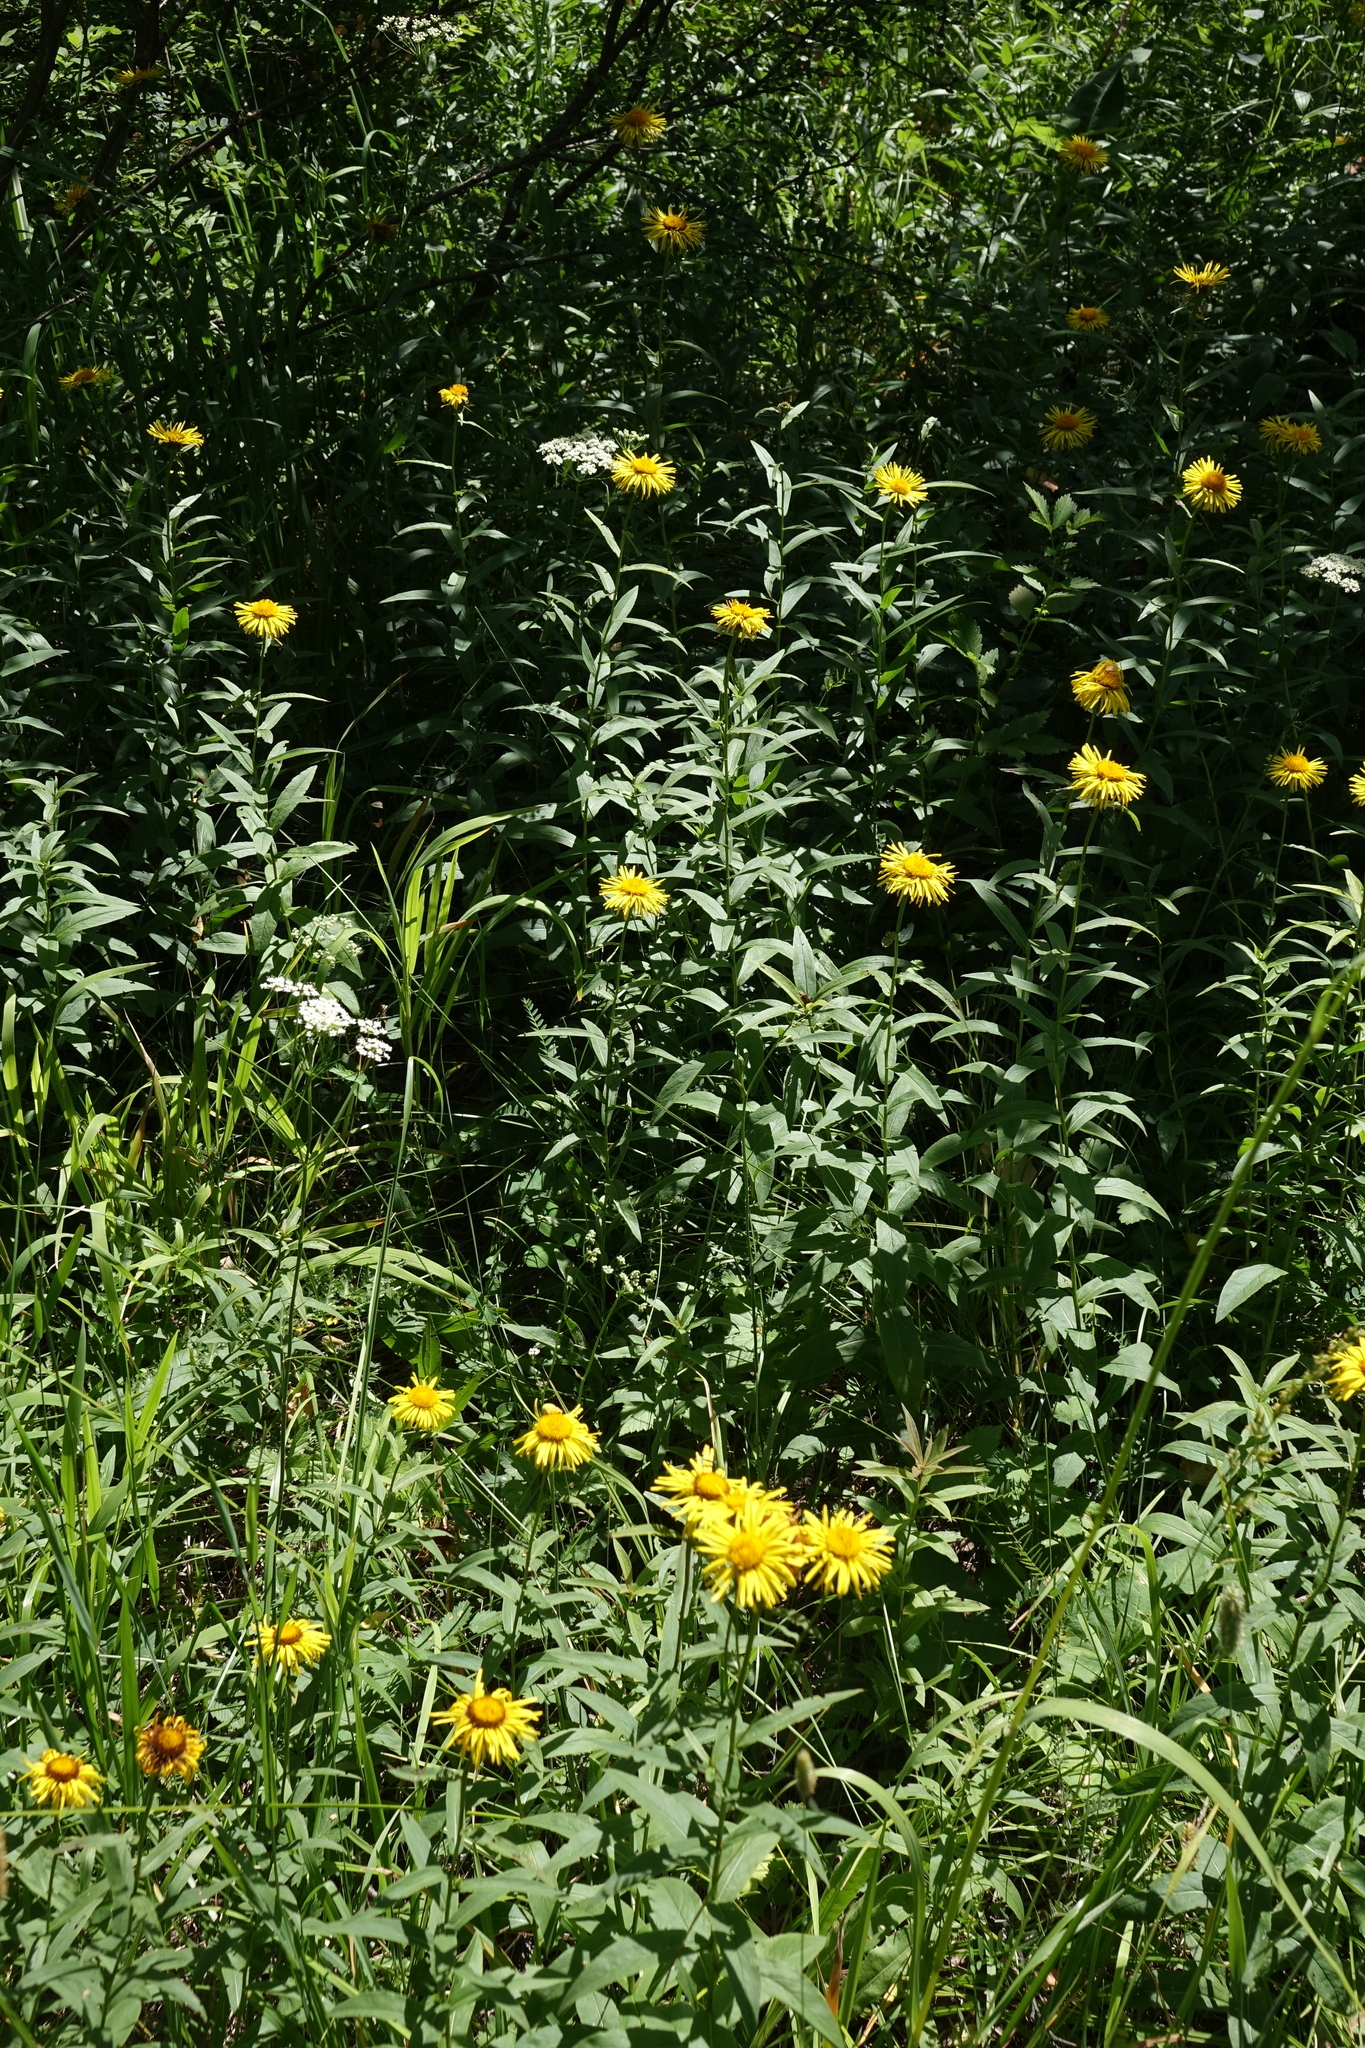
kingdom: Plantae
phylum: Tracheophyta
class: Magnoliopsida
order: Asterales
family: Asteraceae
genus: Pentanema
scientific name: Pentanema salicinum
